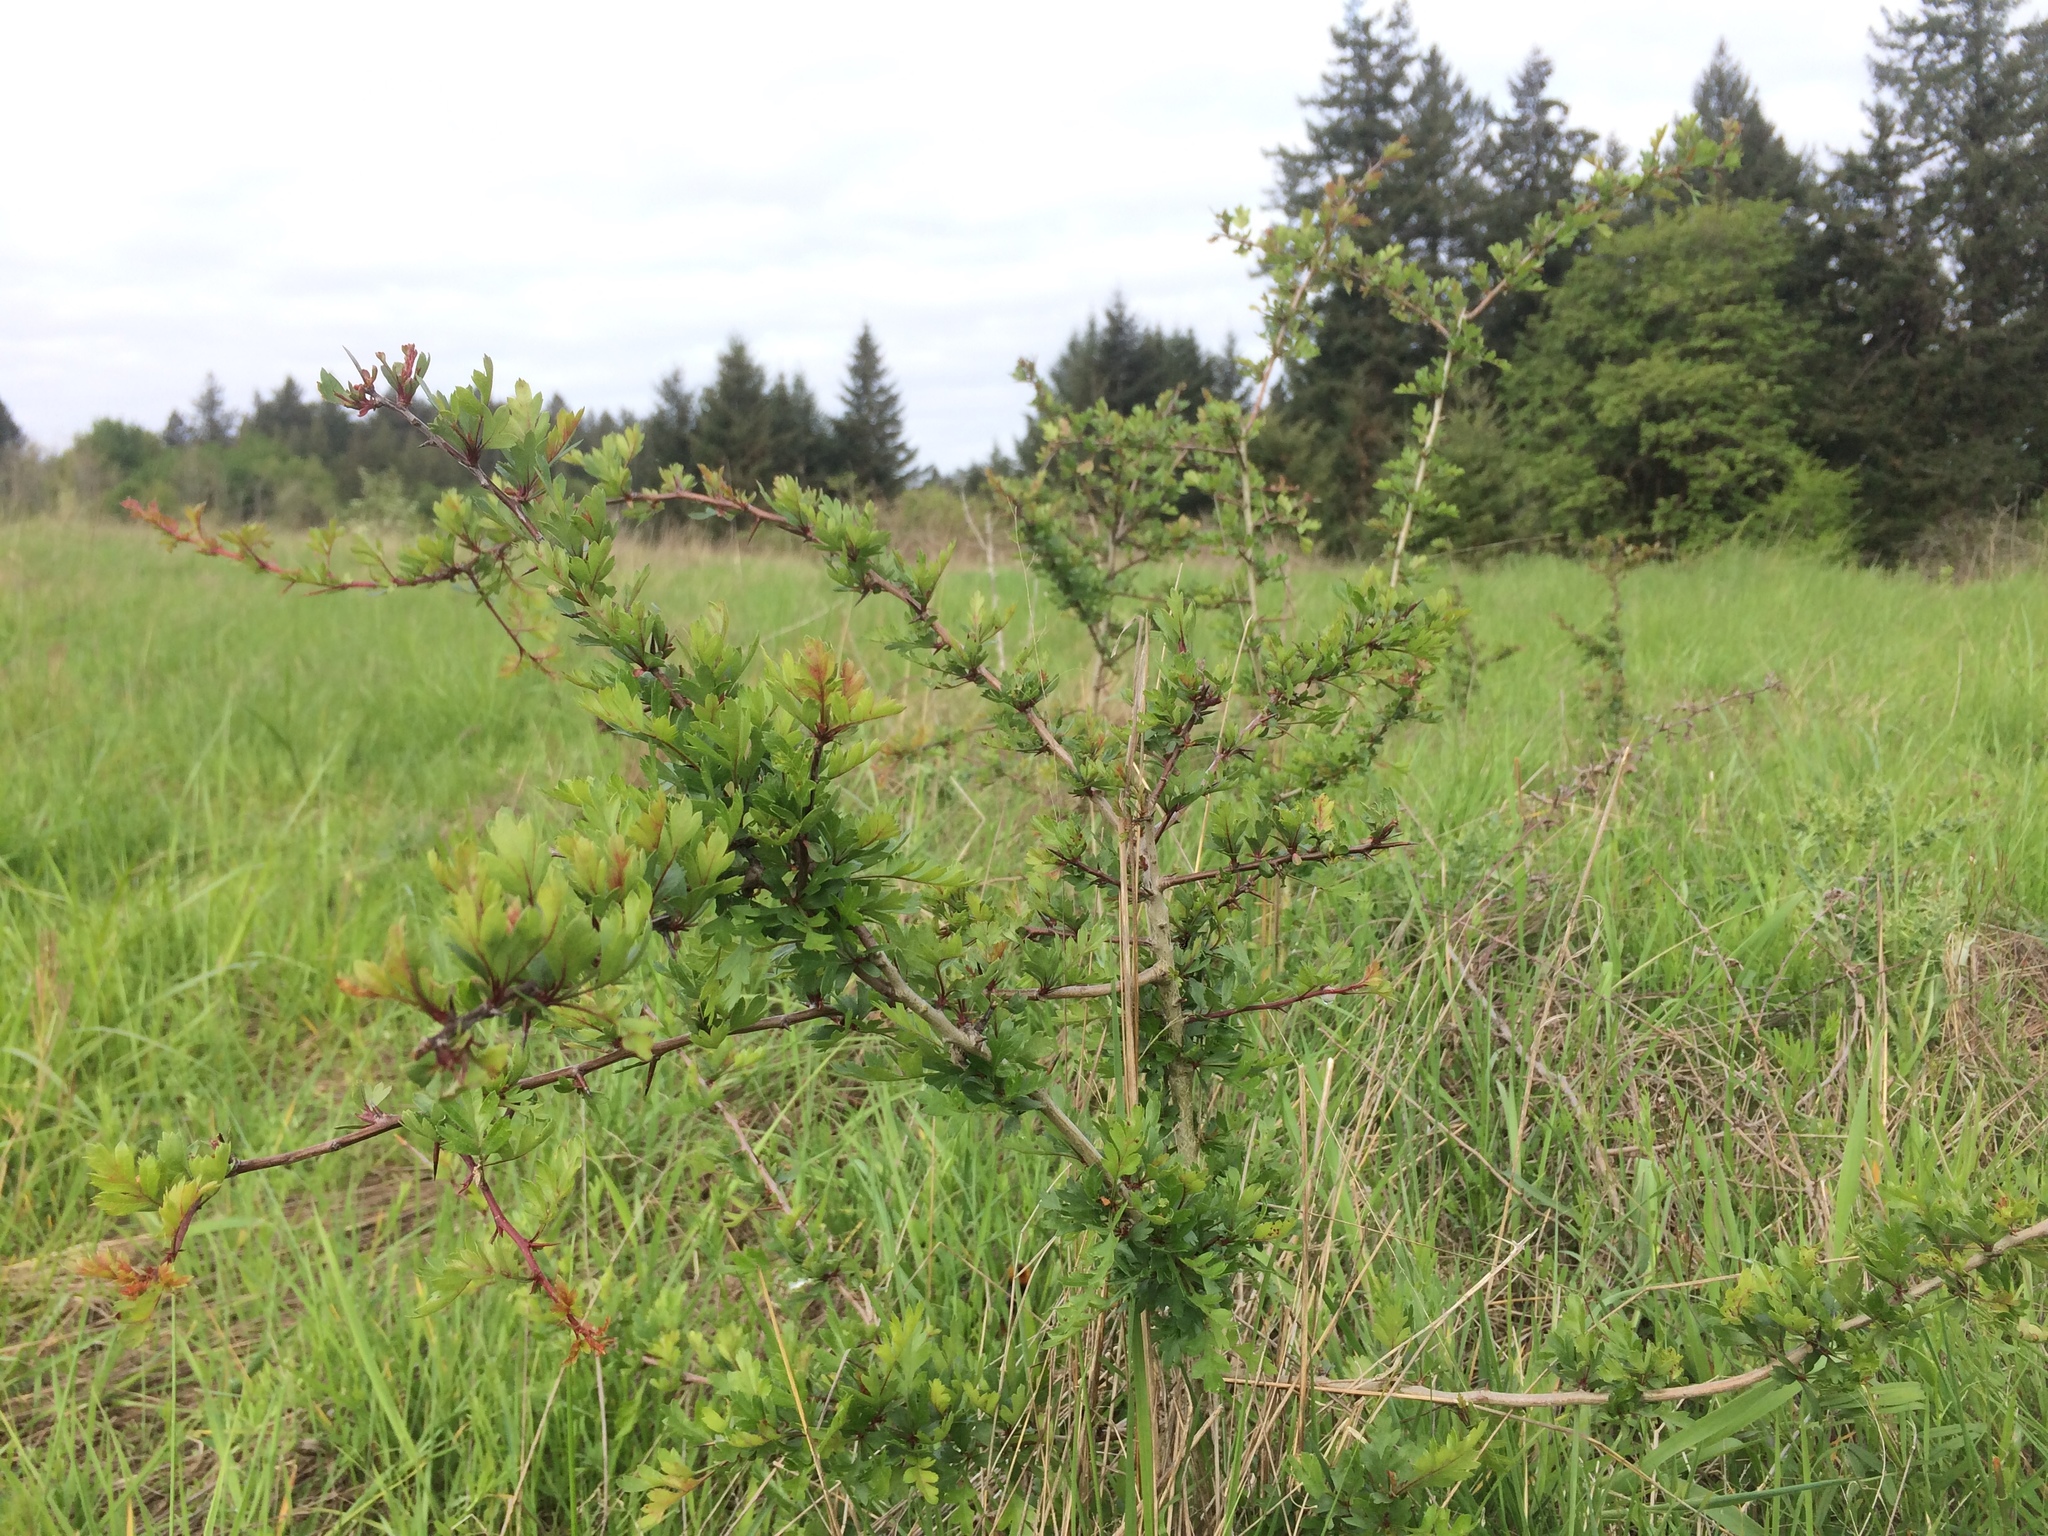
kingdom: Plantae
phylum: Tracheophyta
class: Magnoliopsida
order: Rosales
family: Rosaceae
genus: Crataegus
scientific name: Crataegus monogyna
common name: Hawthorn
